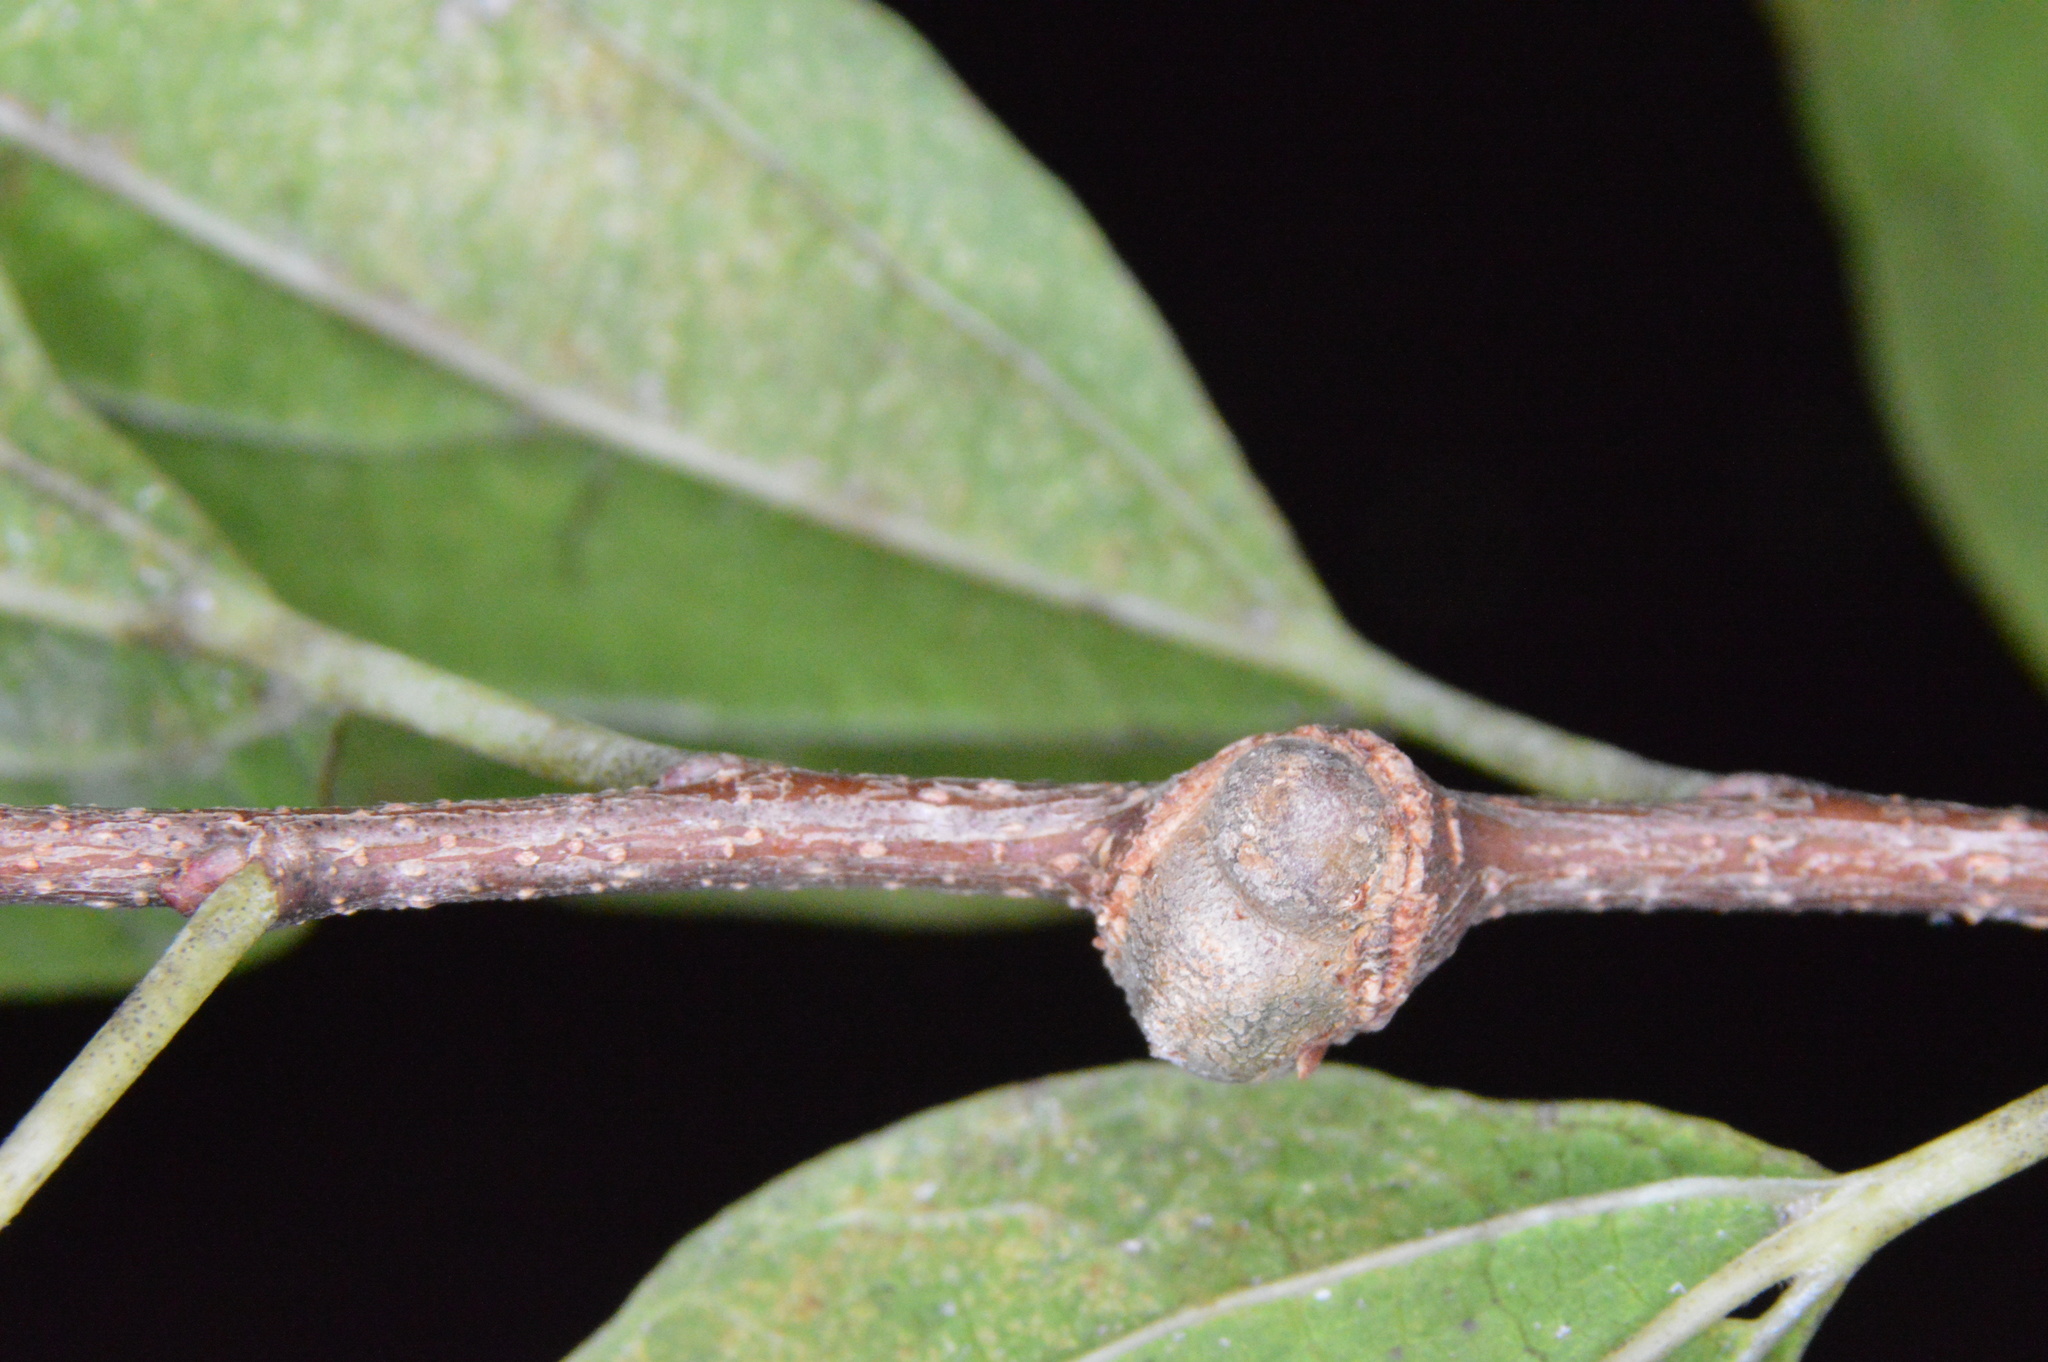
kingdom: Animalia
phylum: Arthropoda
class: Insecta
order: Hemiptera
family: Aphalaridae
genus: Pachypsylla
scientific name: Pachypsylla celtidisgemma
